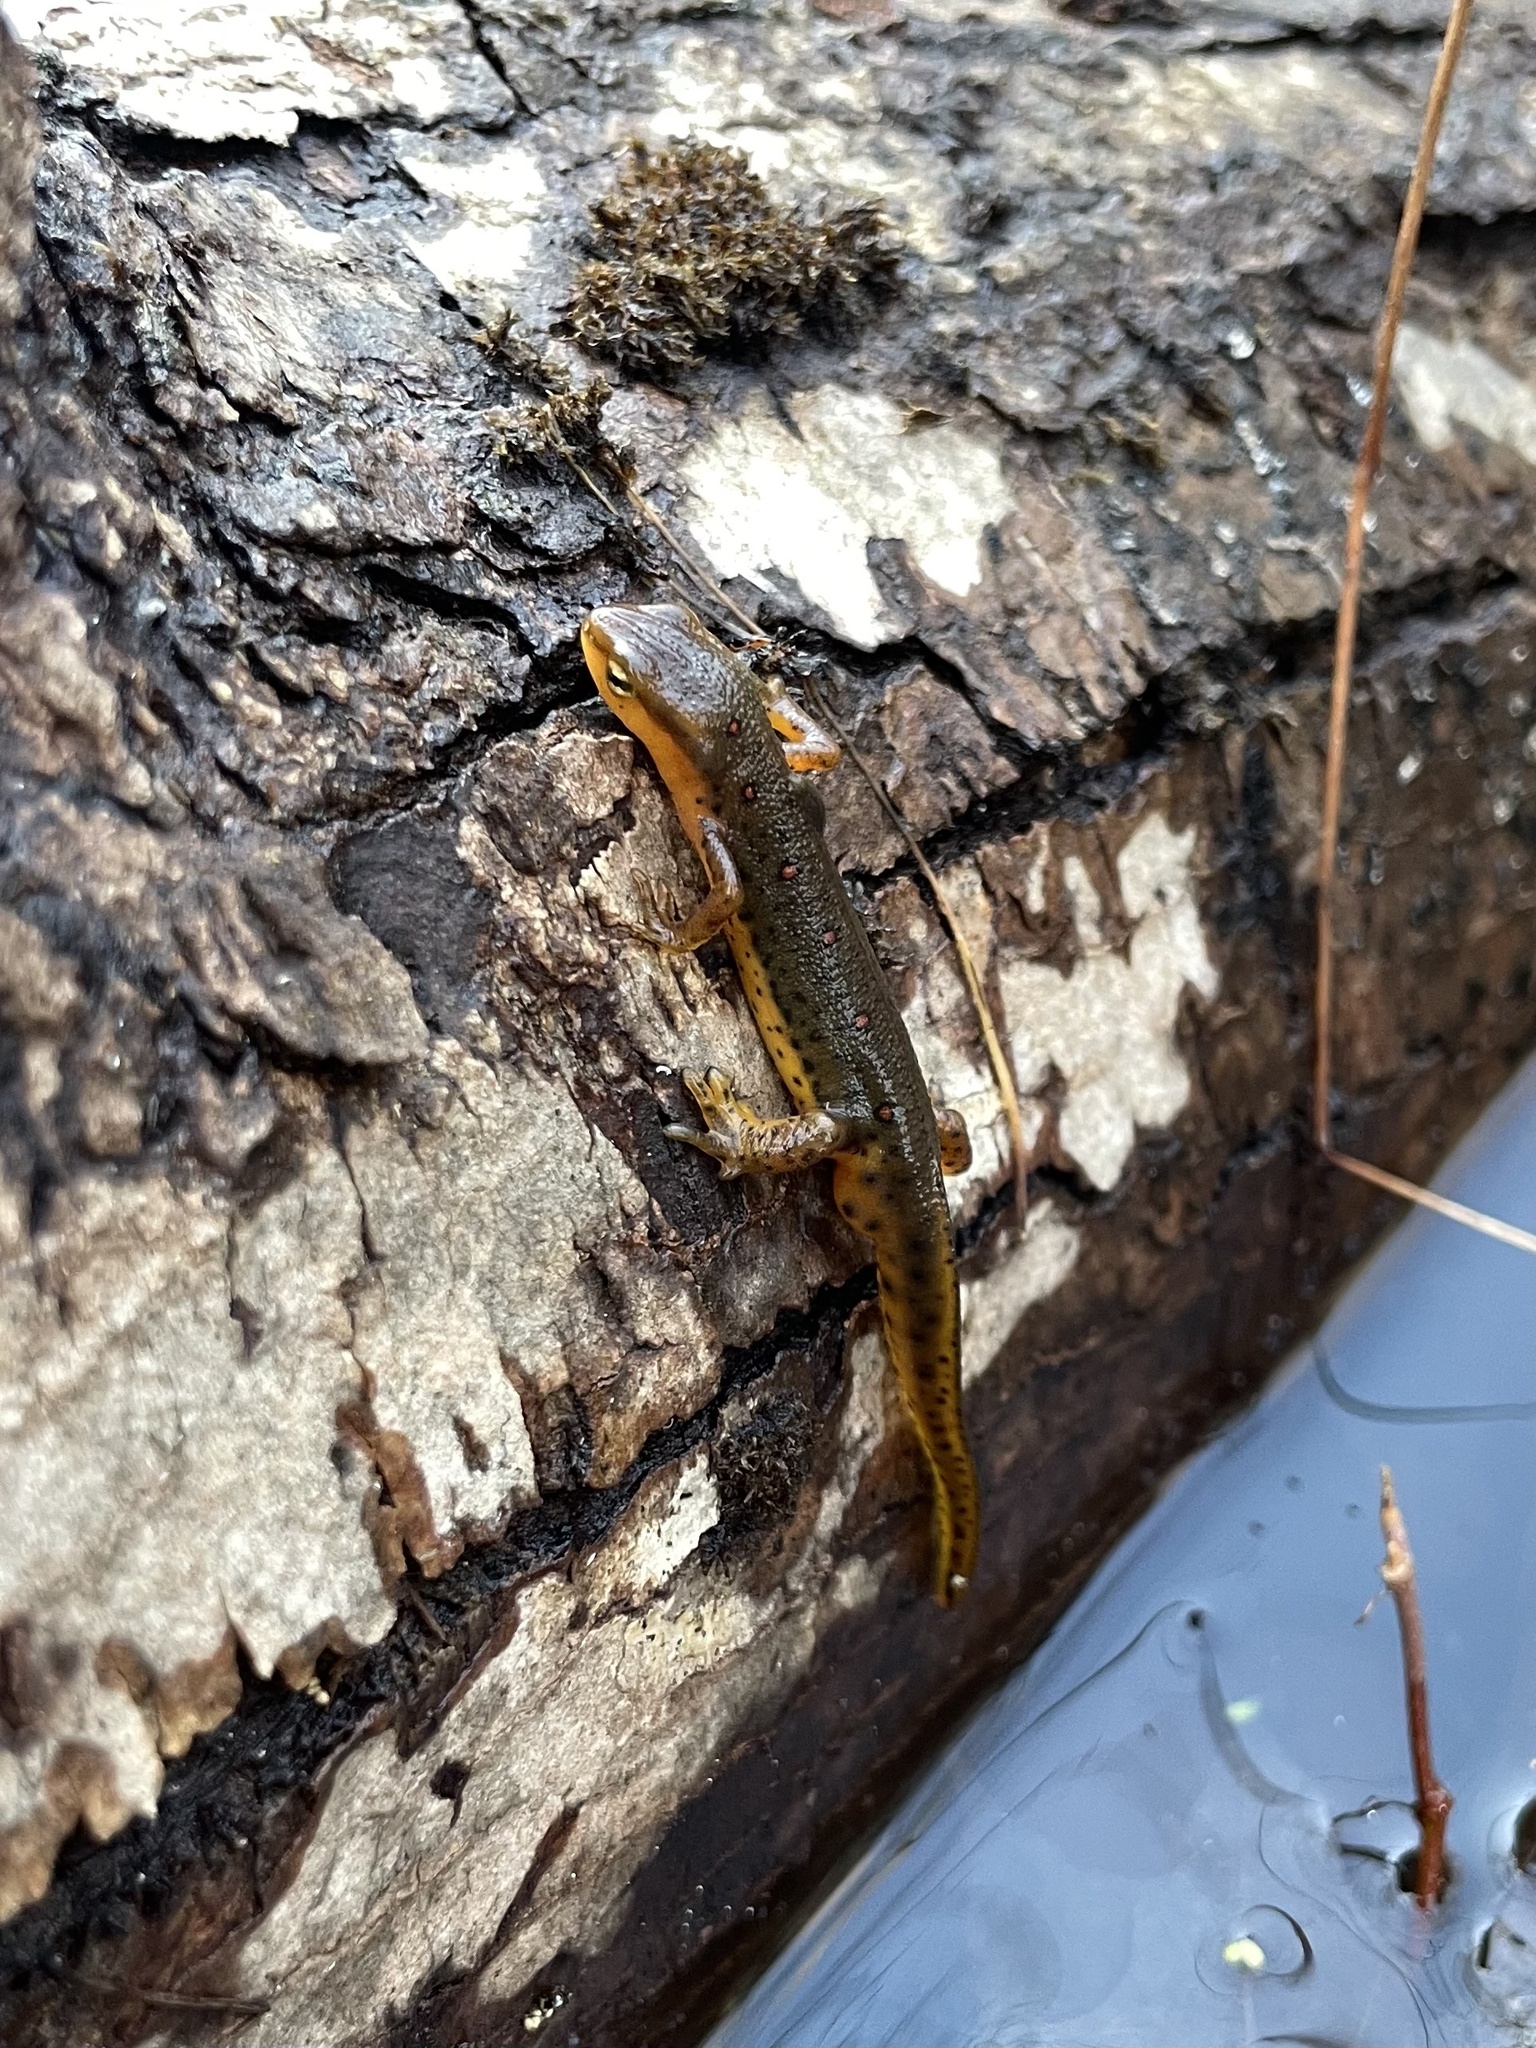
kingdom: Animalia
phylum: Chordata
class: Amphibia
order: Caudata
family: Salamandridae
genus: Notophthalmus
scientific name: Notophthalmus viridescens
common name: Eastern newt
